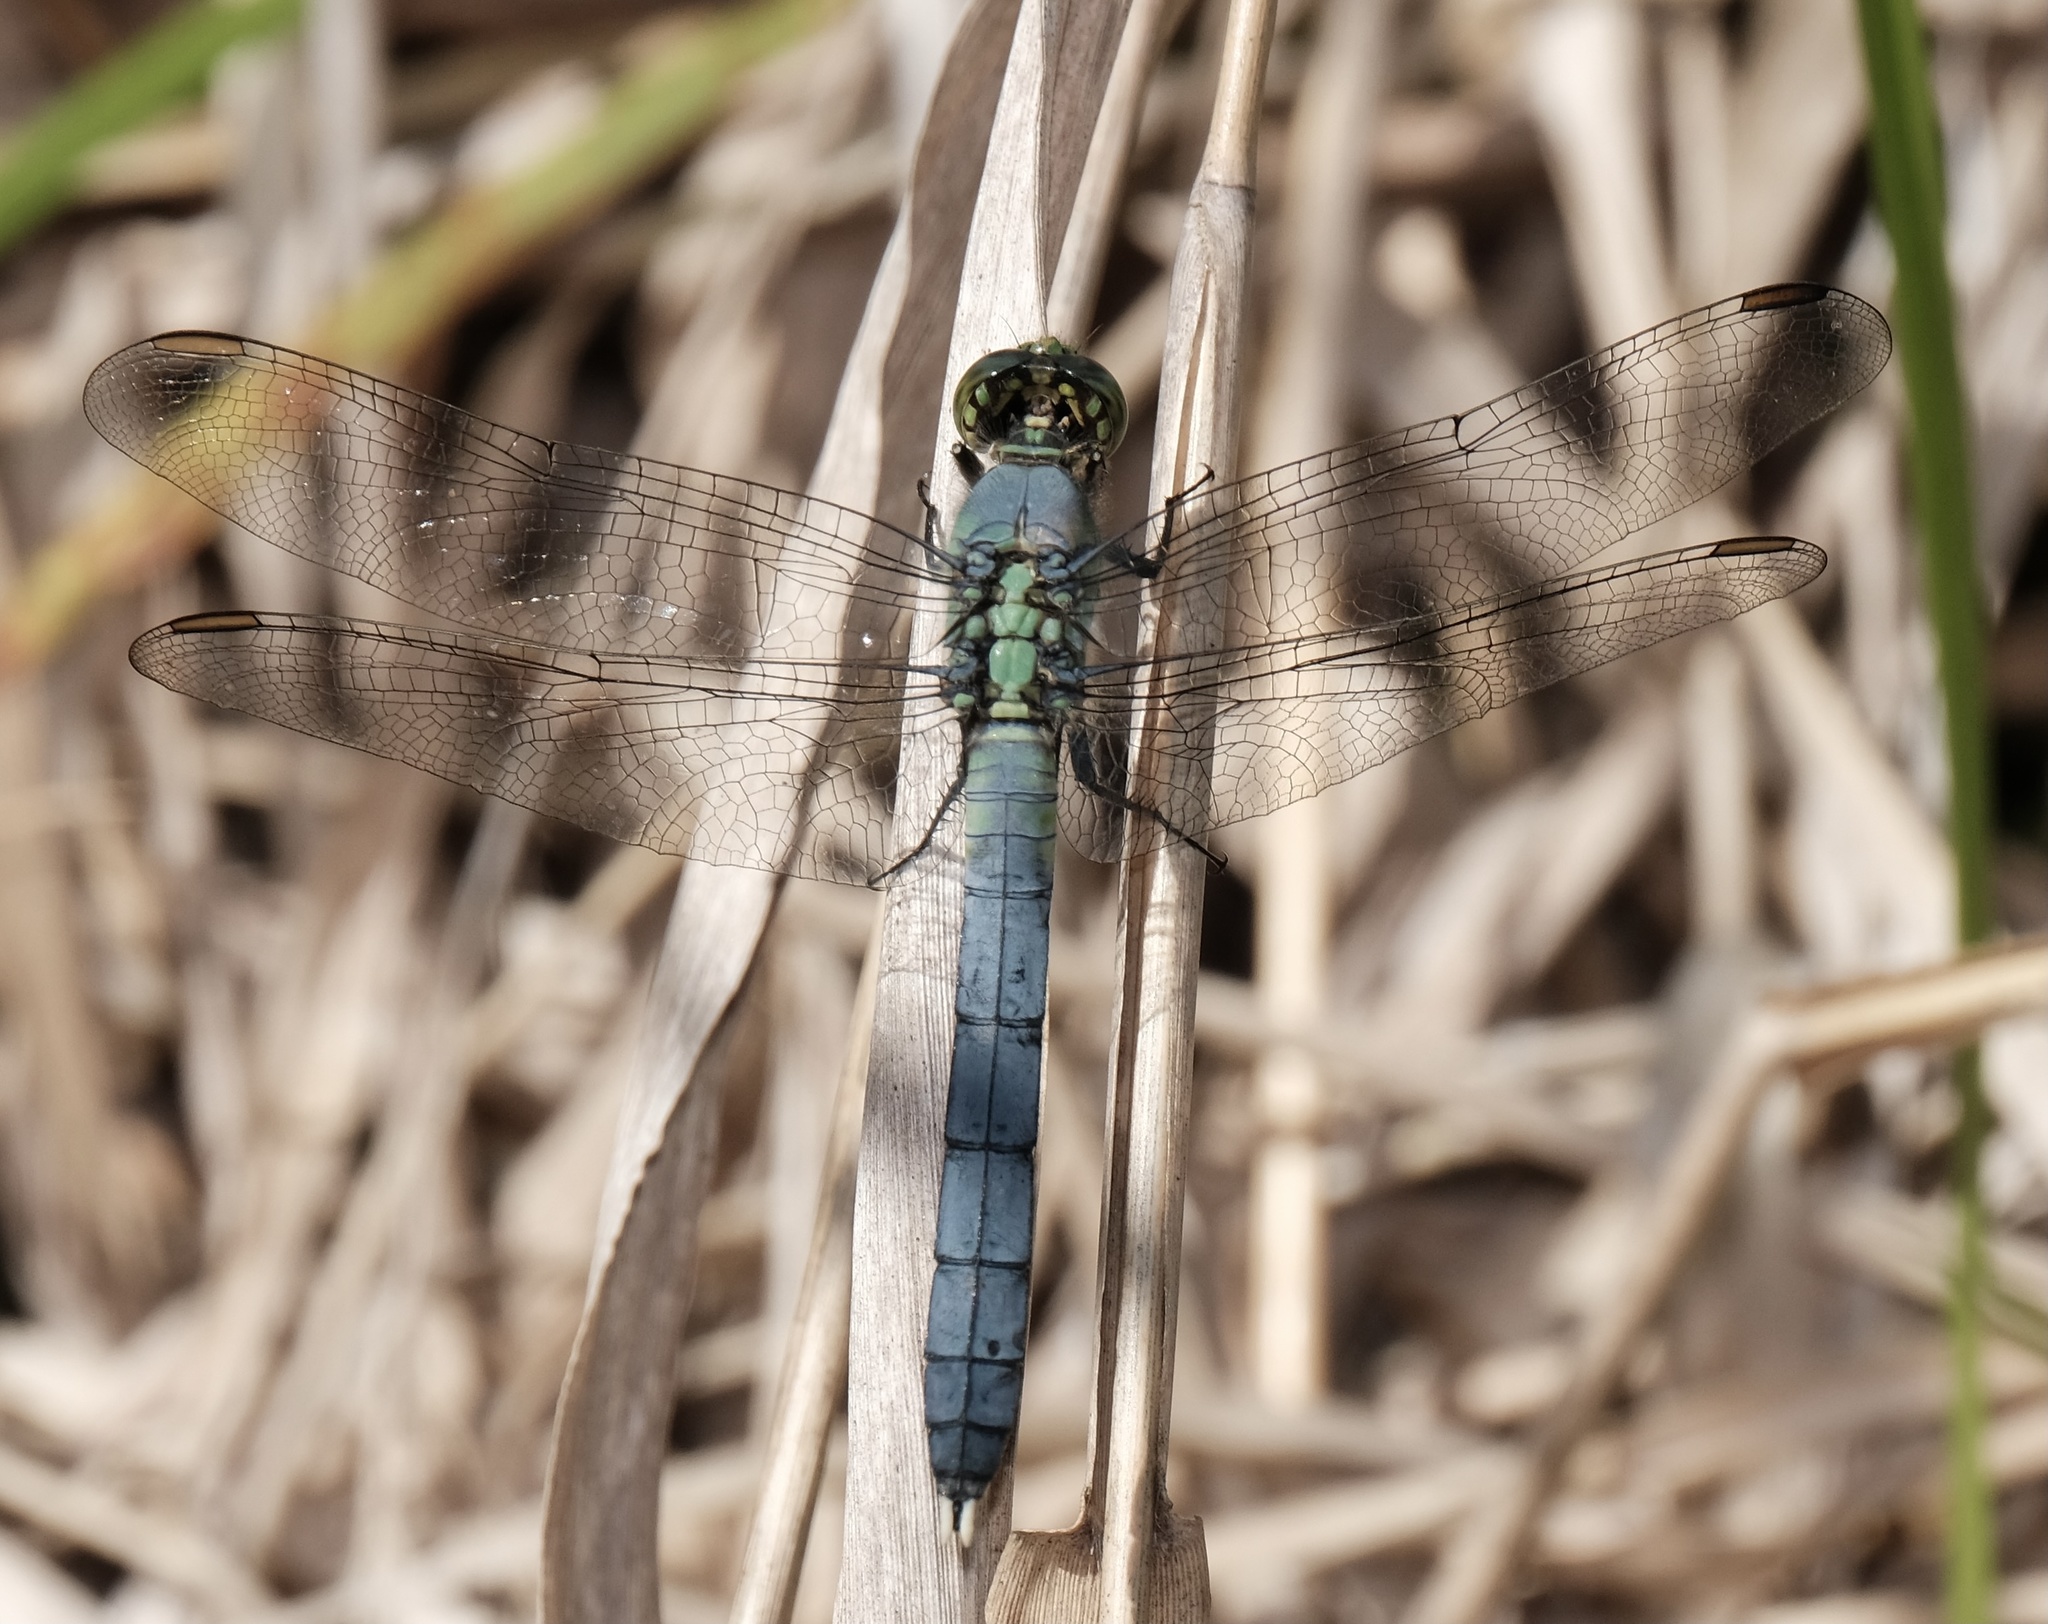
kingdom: Animalia
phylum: Arthropoda
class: Insecta
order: Odonata
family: Libellulidae
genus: Erythemis
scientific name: Erythemis simplicicollis
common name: Eastern pondhawk
